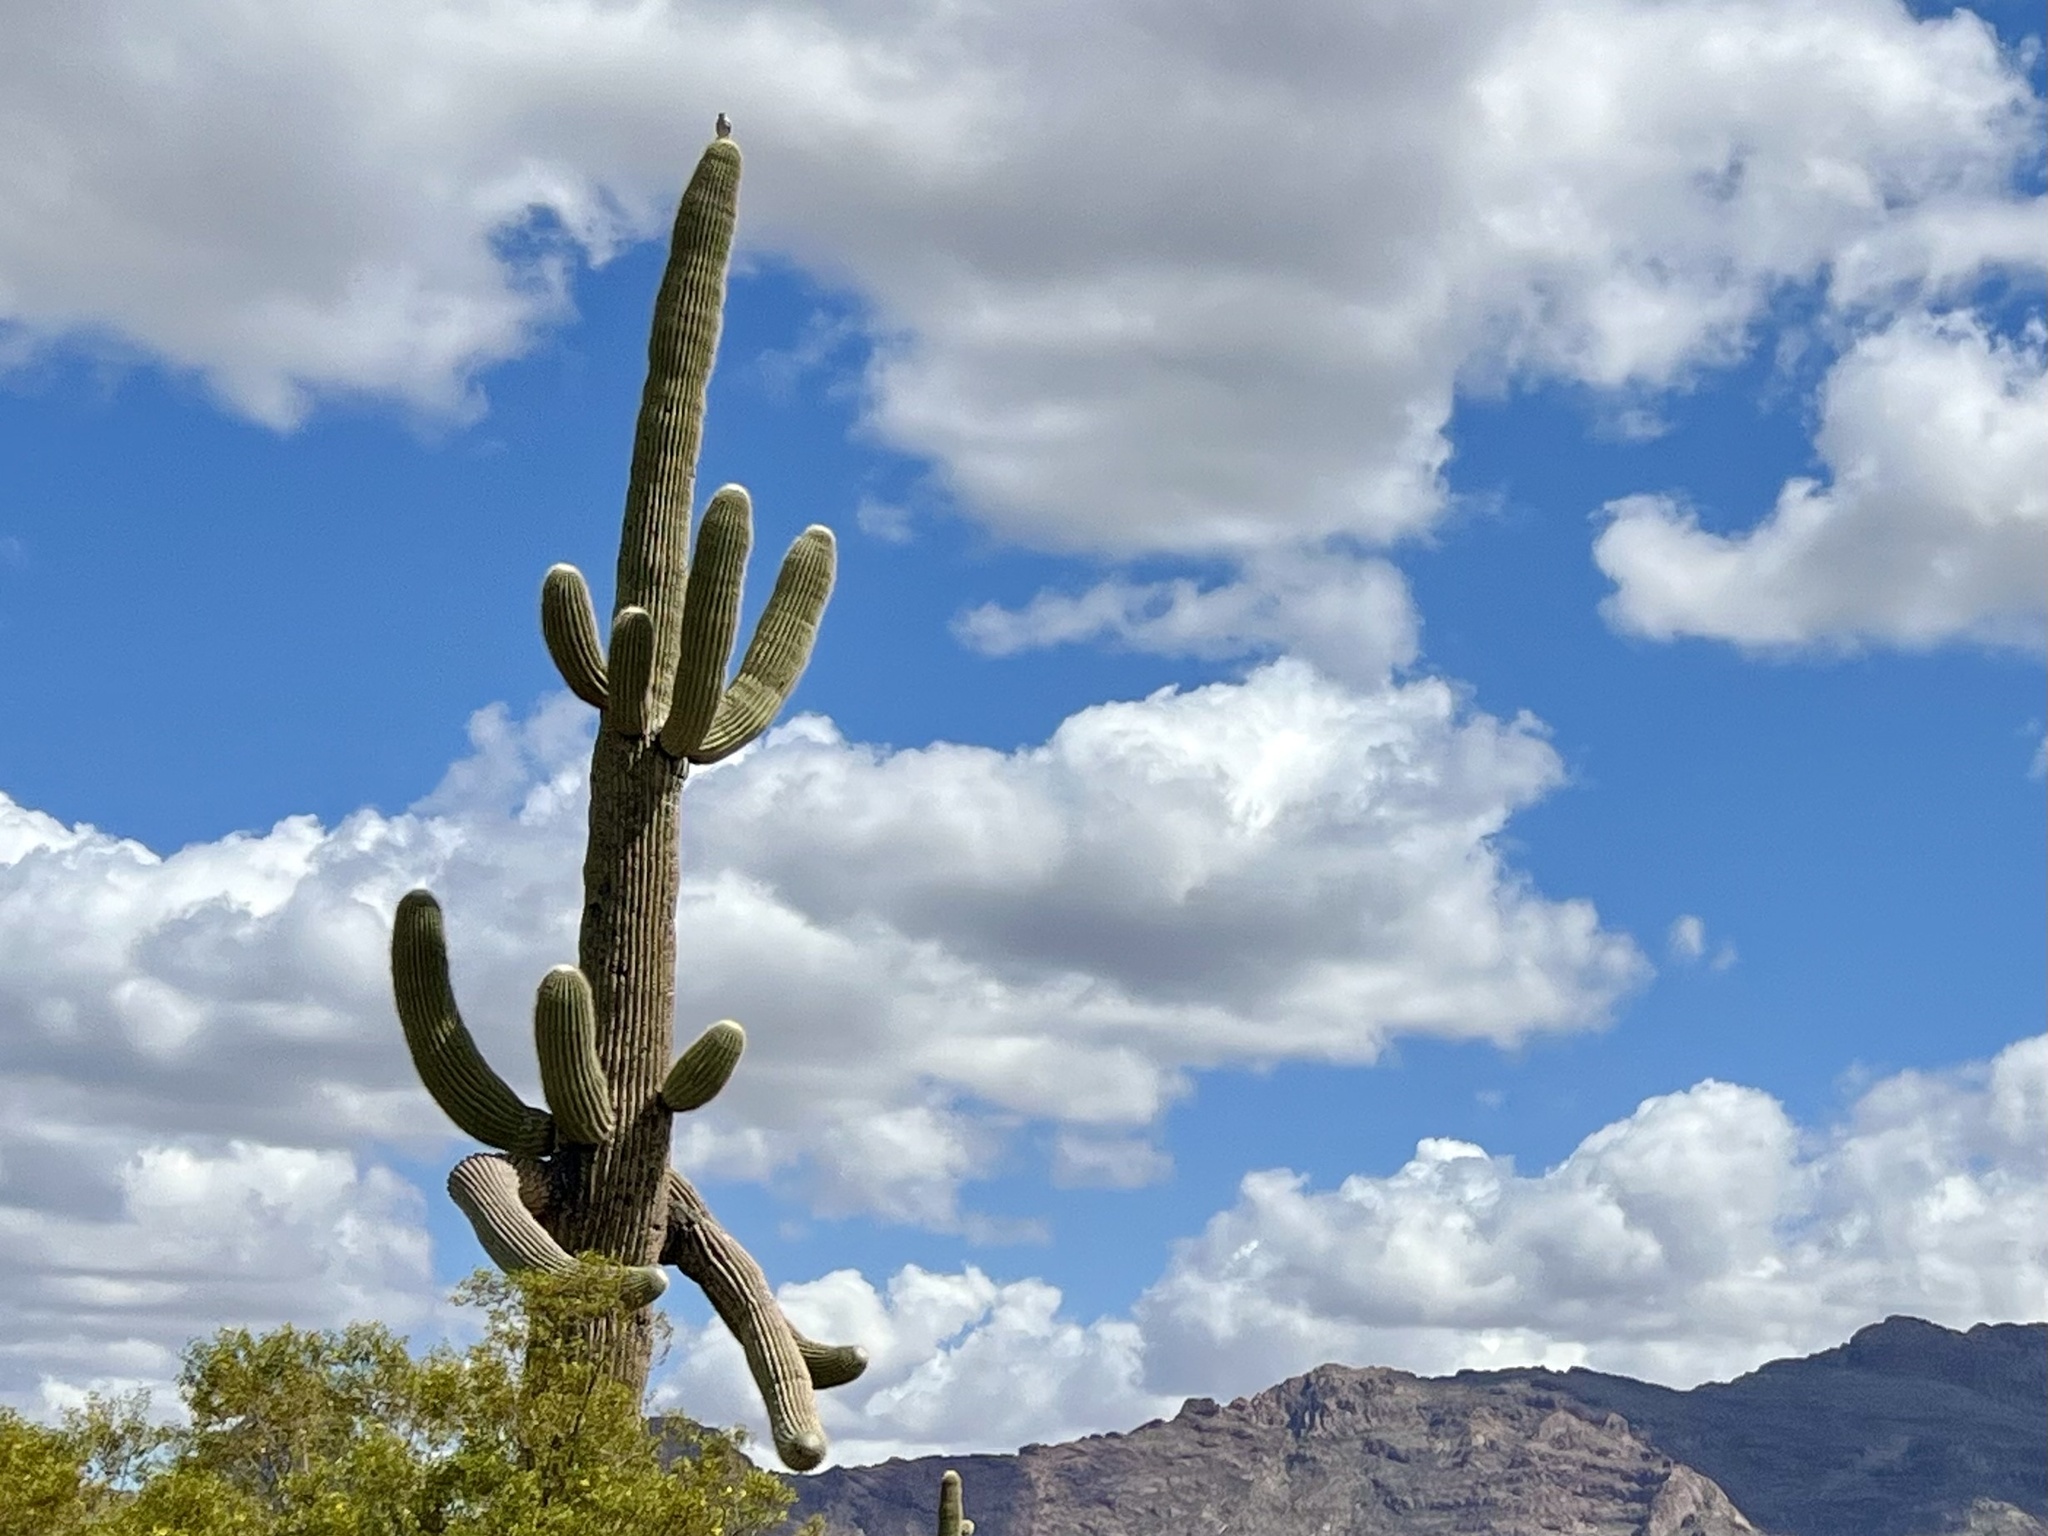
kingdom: Plantae
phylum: Tracheophyta
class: Magnoliopsida
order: Caryophyllales
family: Cactaceae
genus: Carnegiea
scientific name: Carnegiea gigantea
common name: Saguaro
